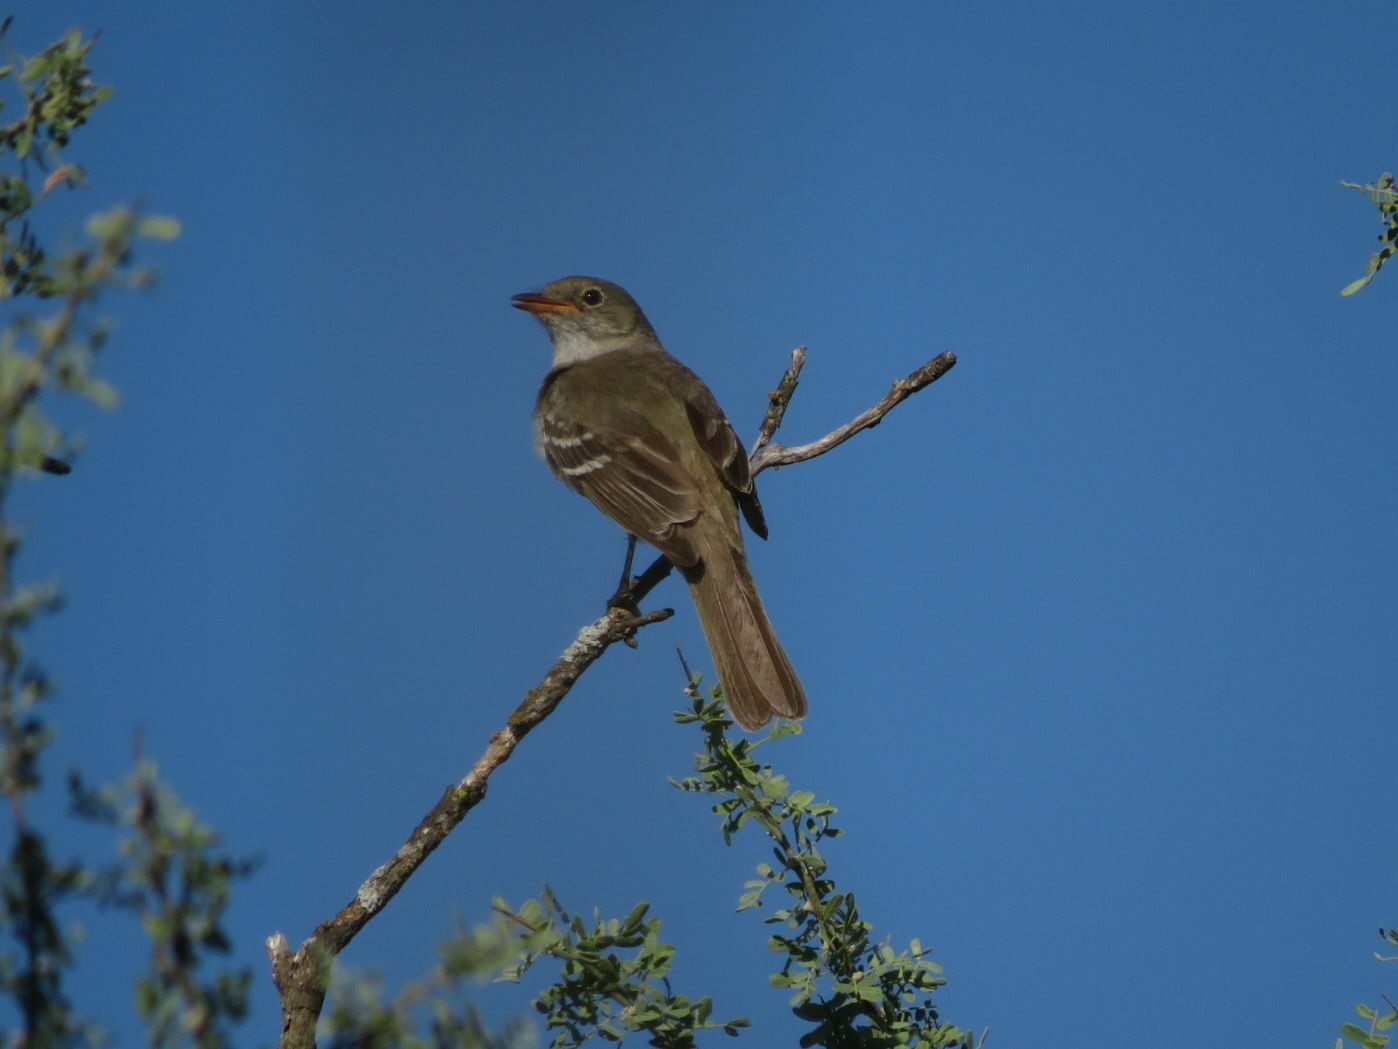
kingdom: Animalia
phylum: Chordata
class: Aves
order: Passeriformes
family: Tyrannidae
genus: Elaenia
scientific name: Elaenia parvirostris
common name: Small-billed elaenia
